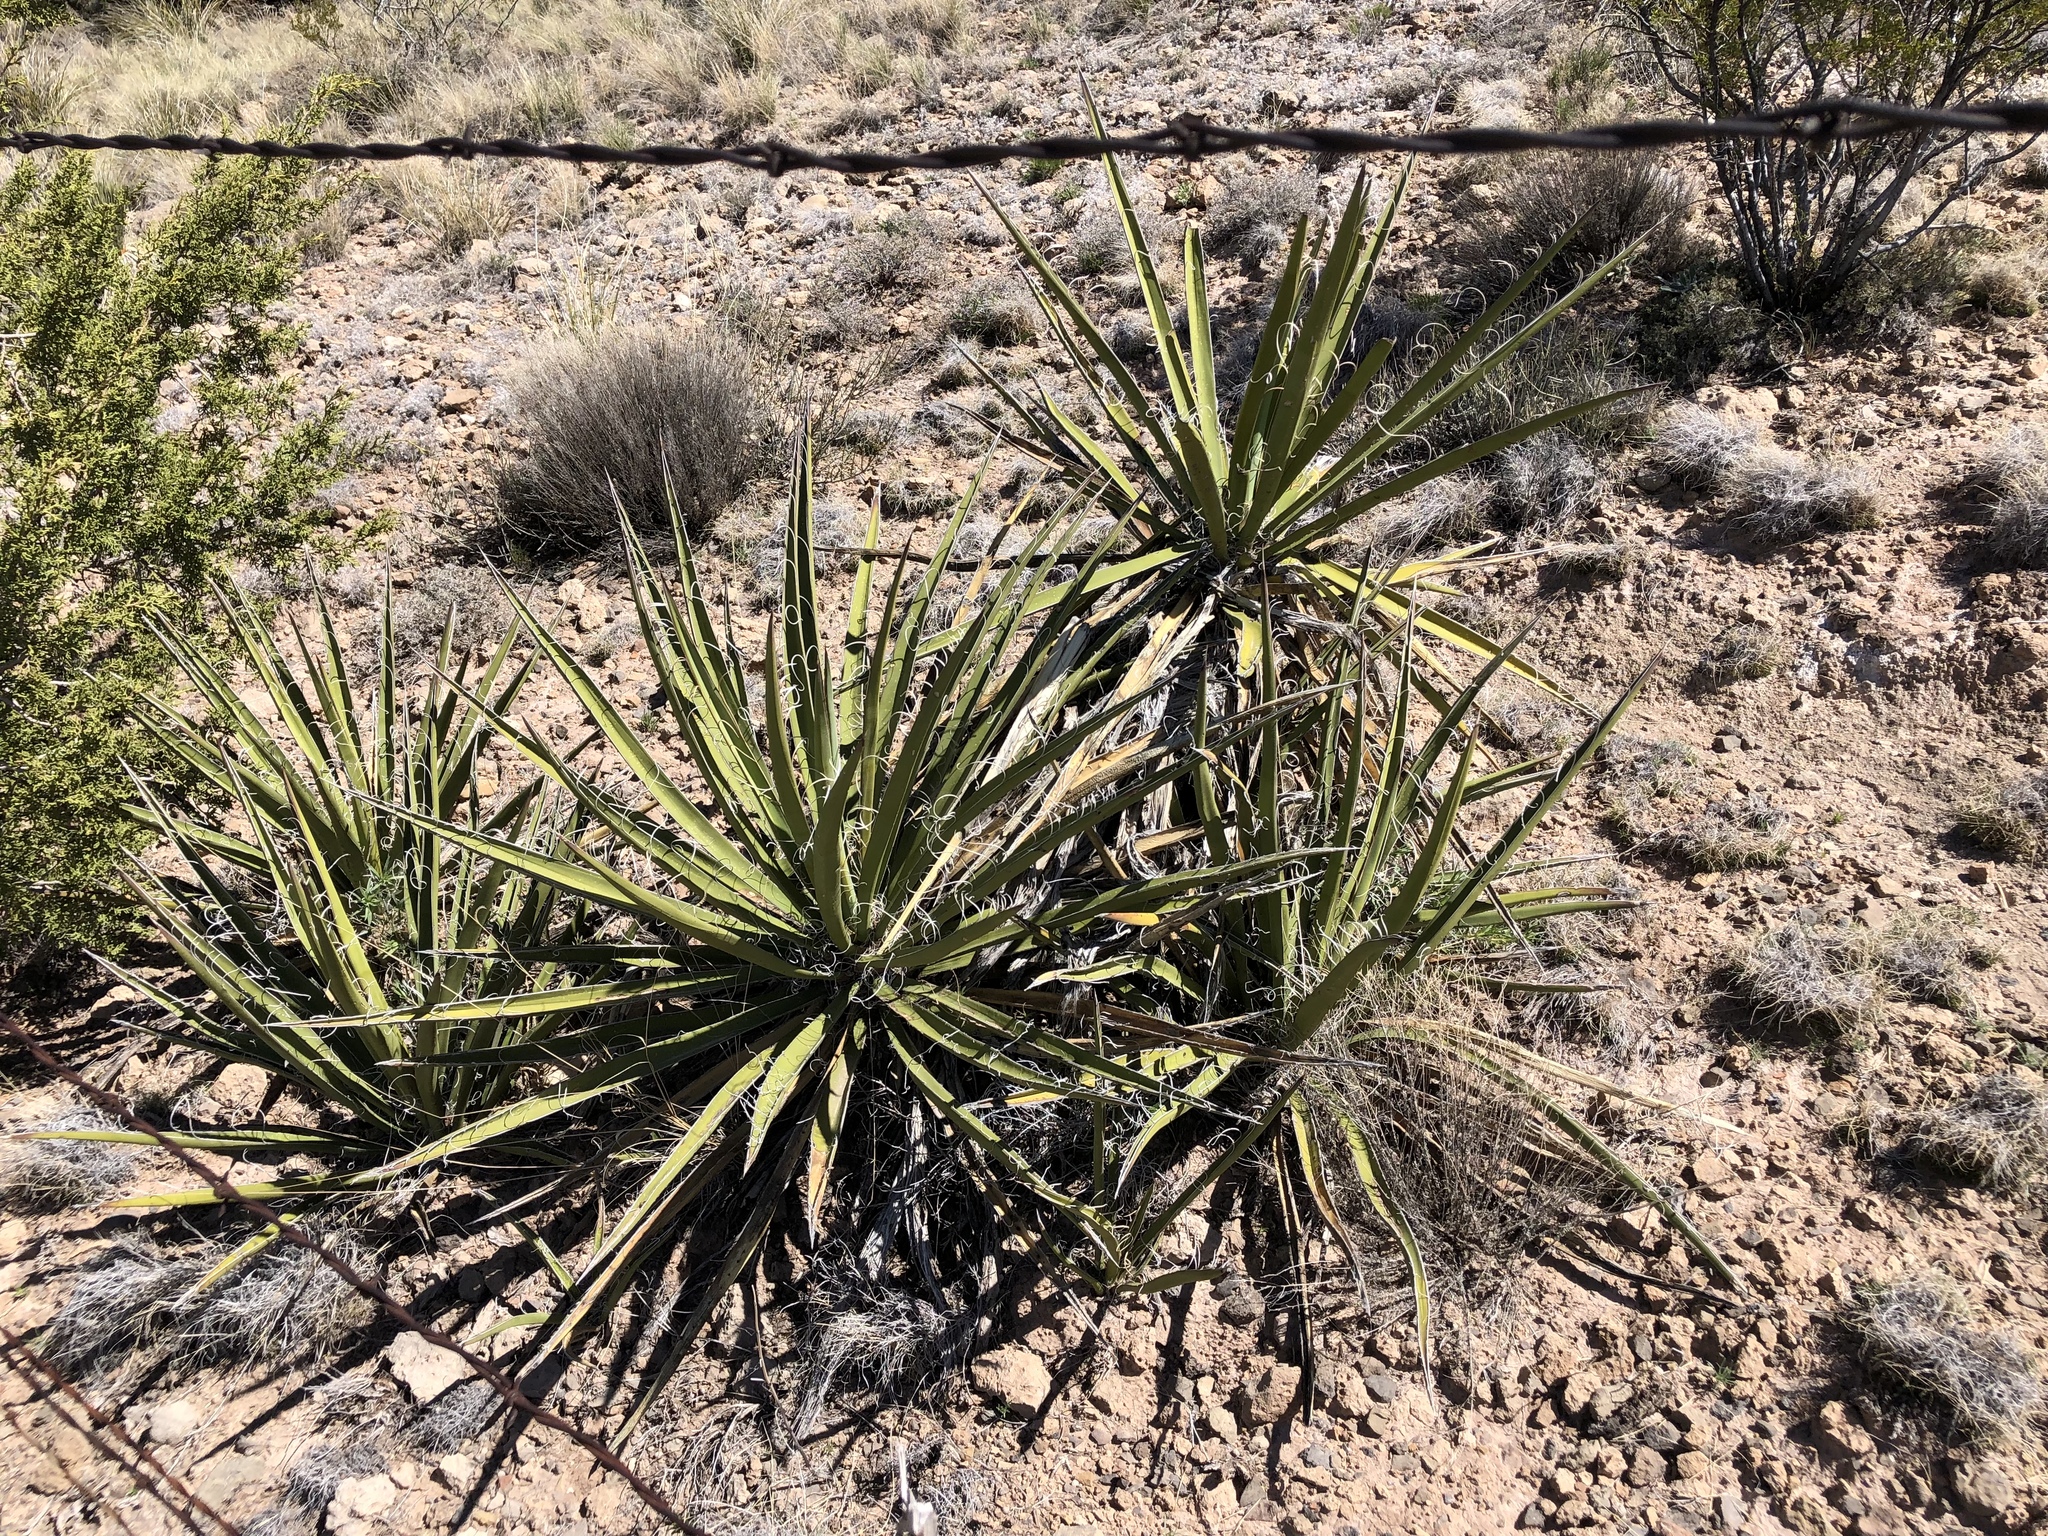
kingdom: Plantae
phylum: Tracheophyta
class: Liliopsida
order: Asparagales
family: Asparagaceae
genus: Yucca
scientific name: Yucca baccata
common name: Banana yucca
